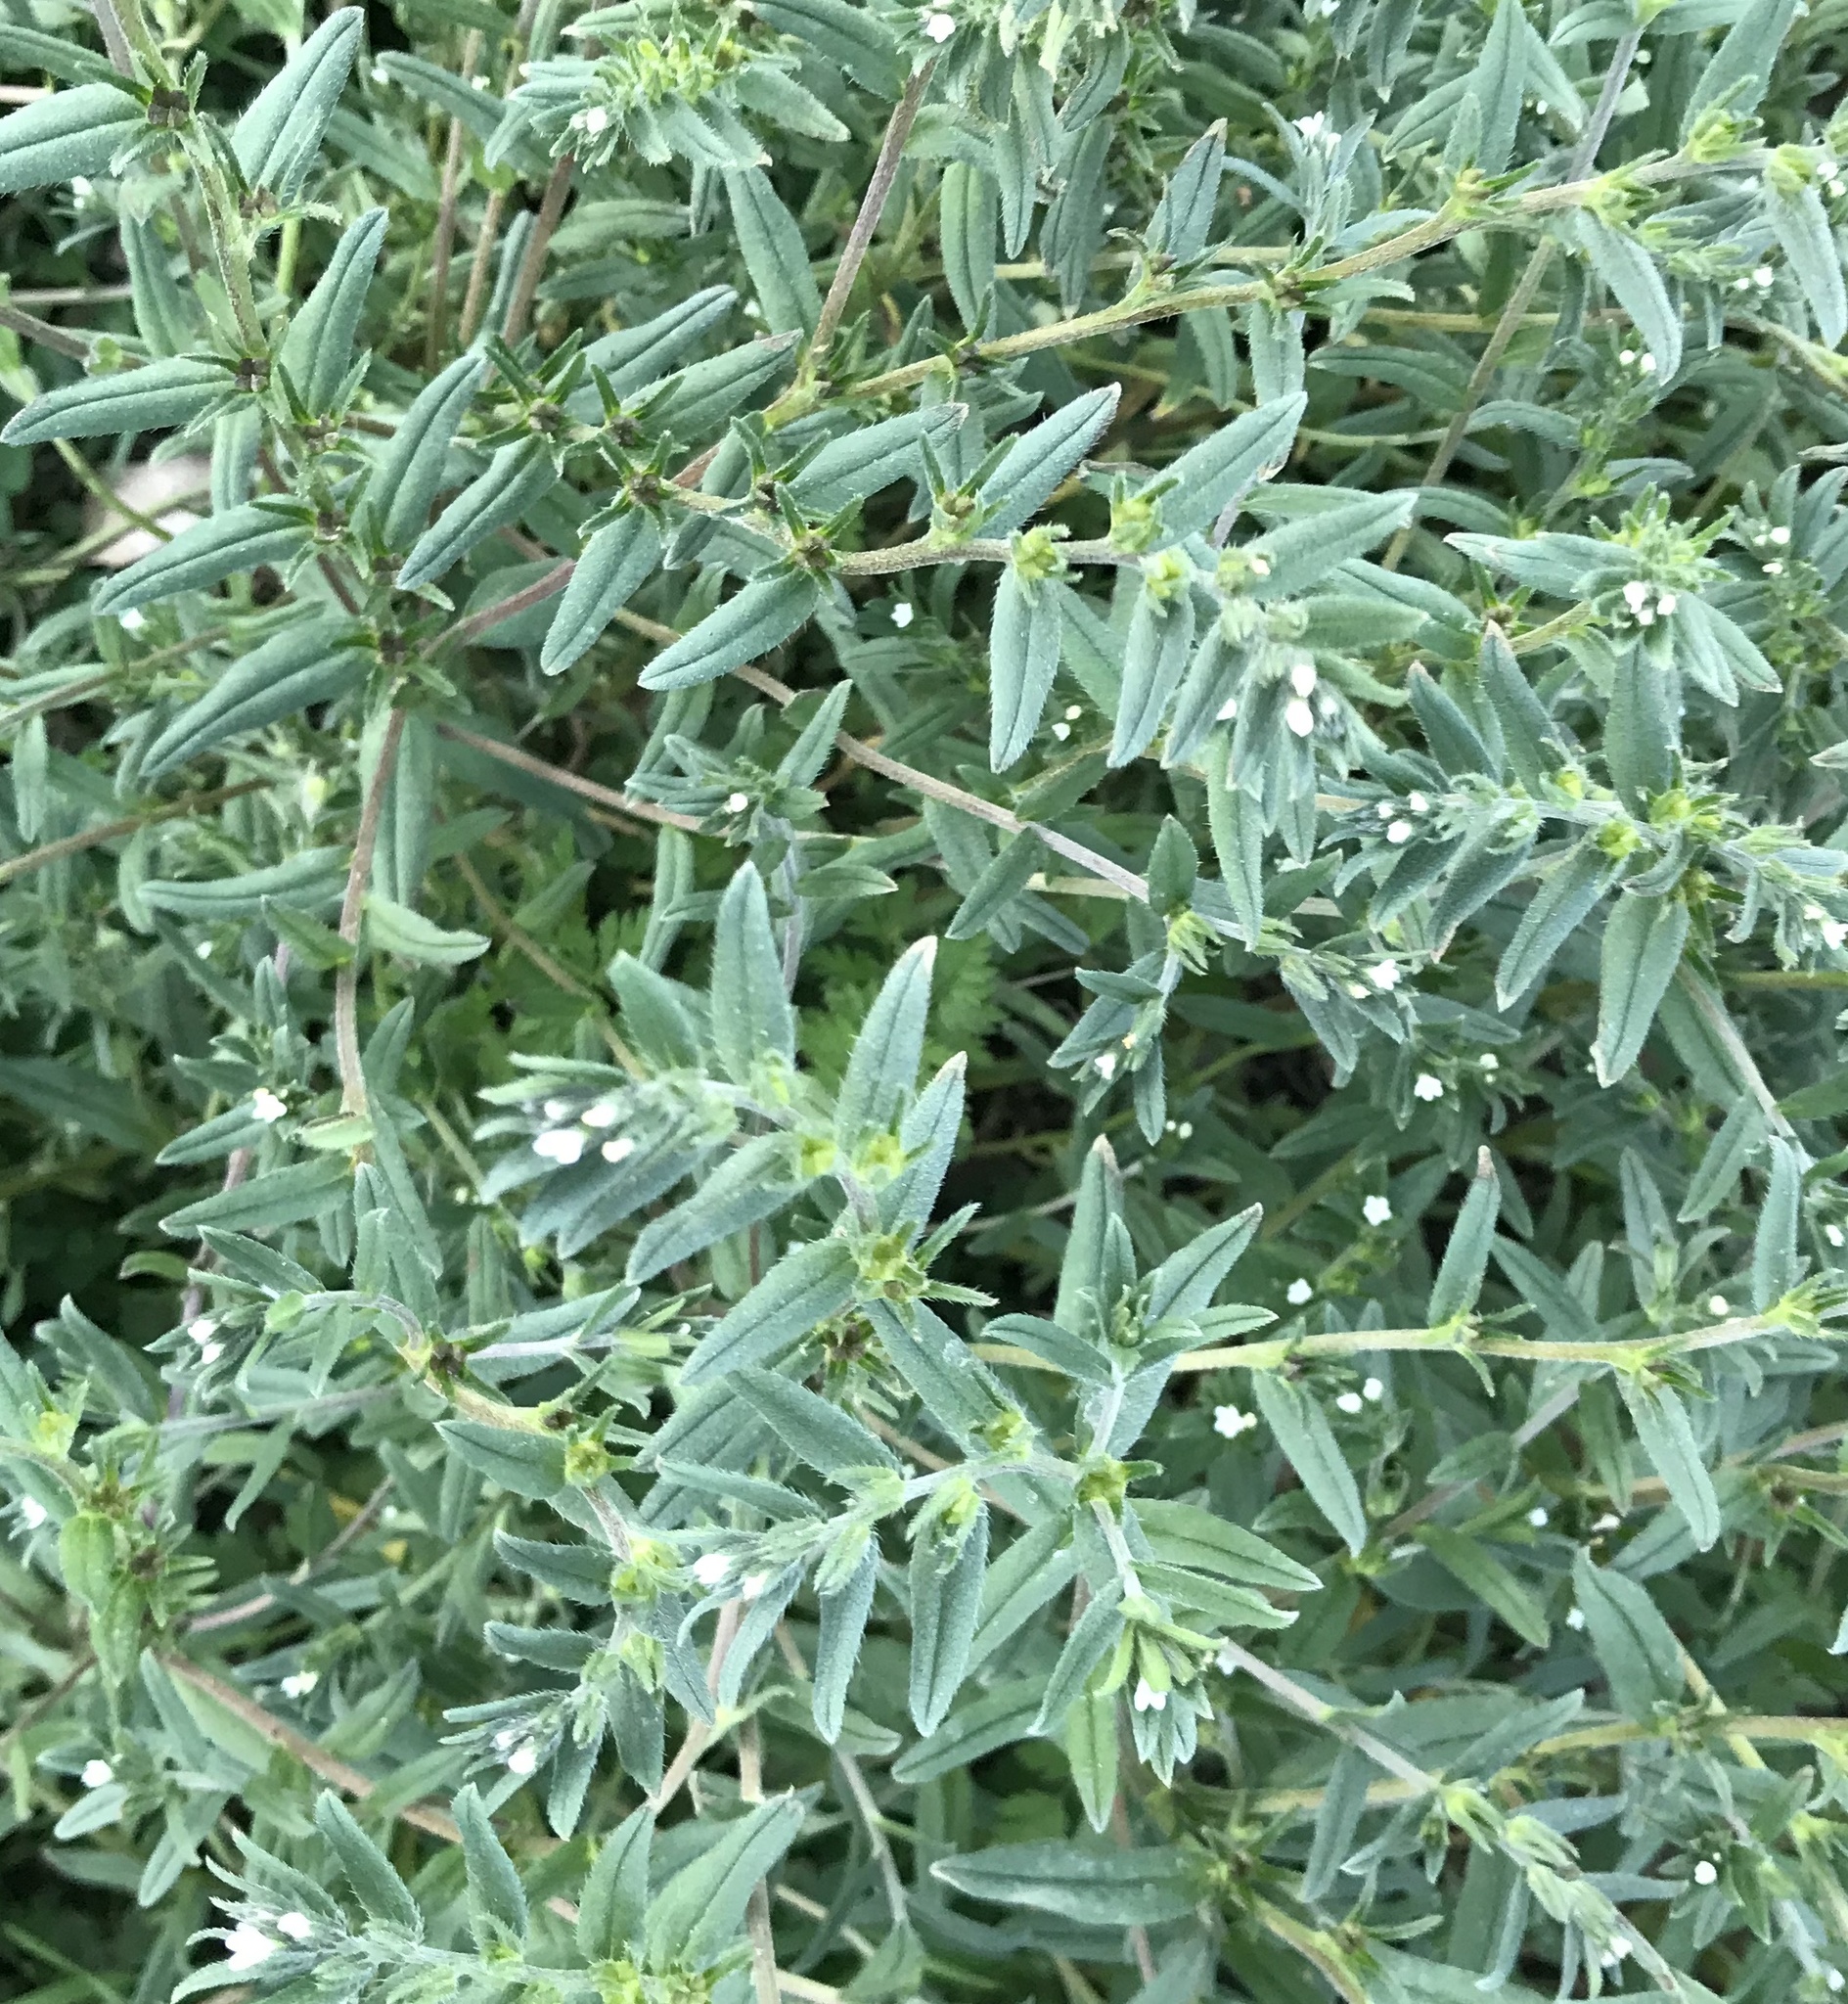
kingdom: Plantae
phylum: Tracheophyta
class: Magnoliopsida
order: Boraginales
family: Boraginaceae
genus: Buglossoides
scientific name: Buglossoides arvensis
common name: Corn gromwell
